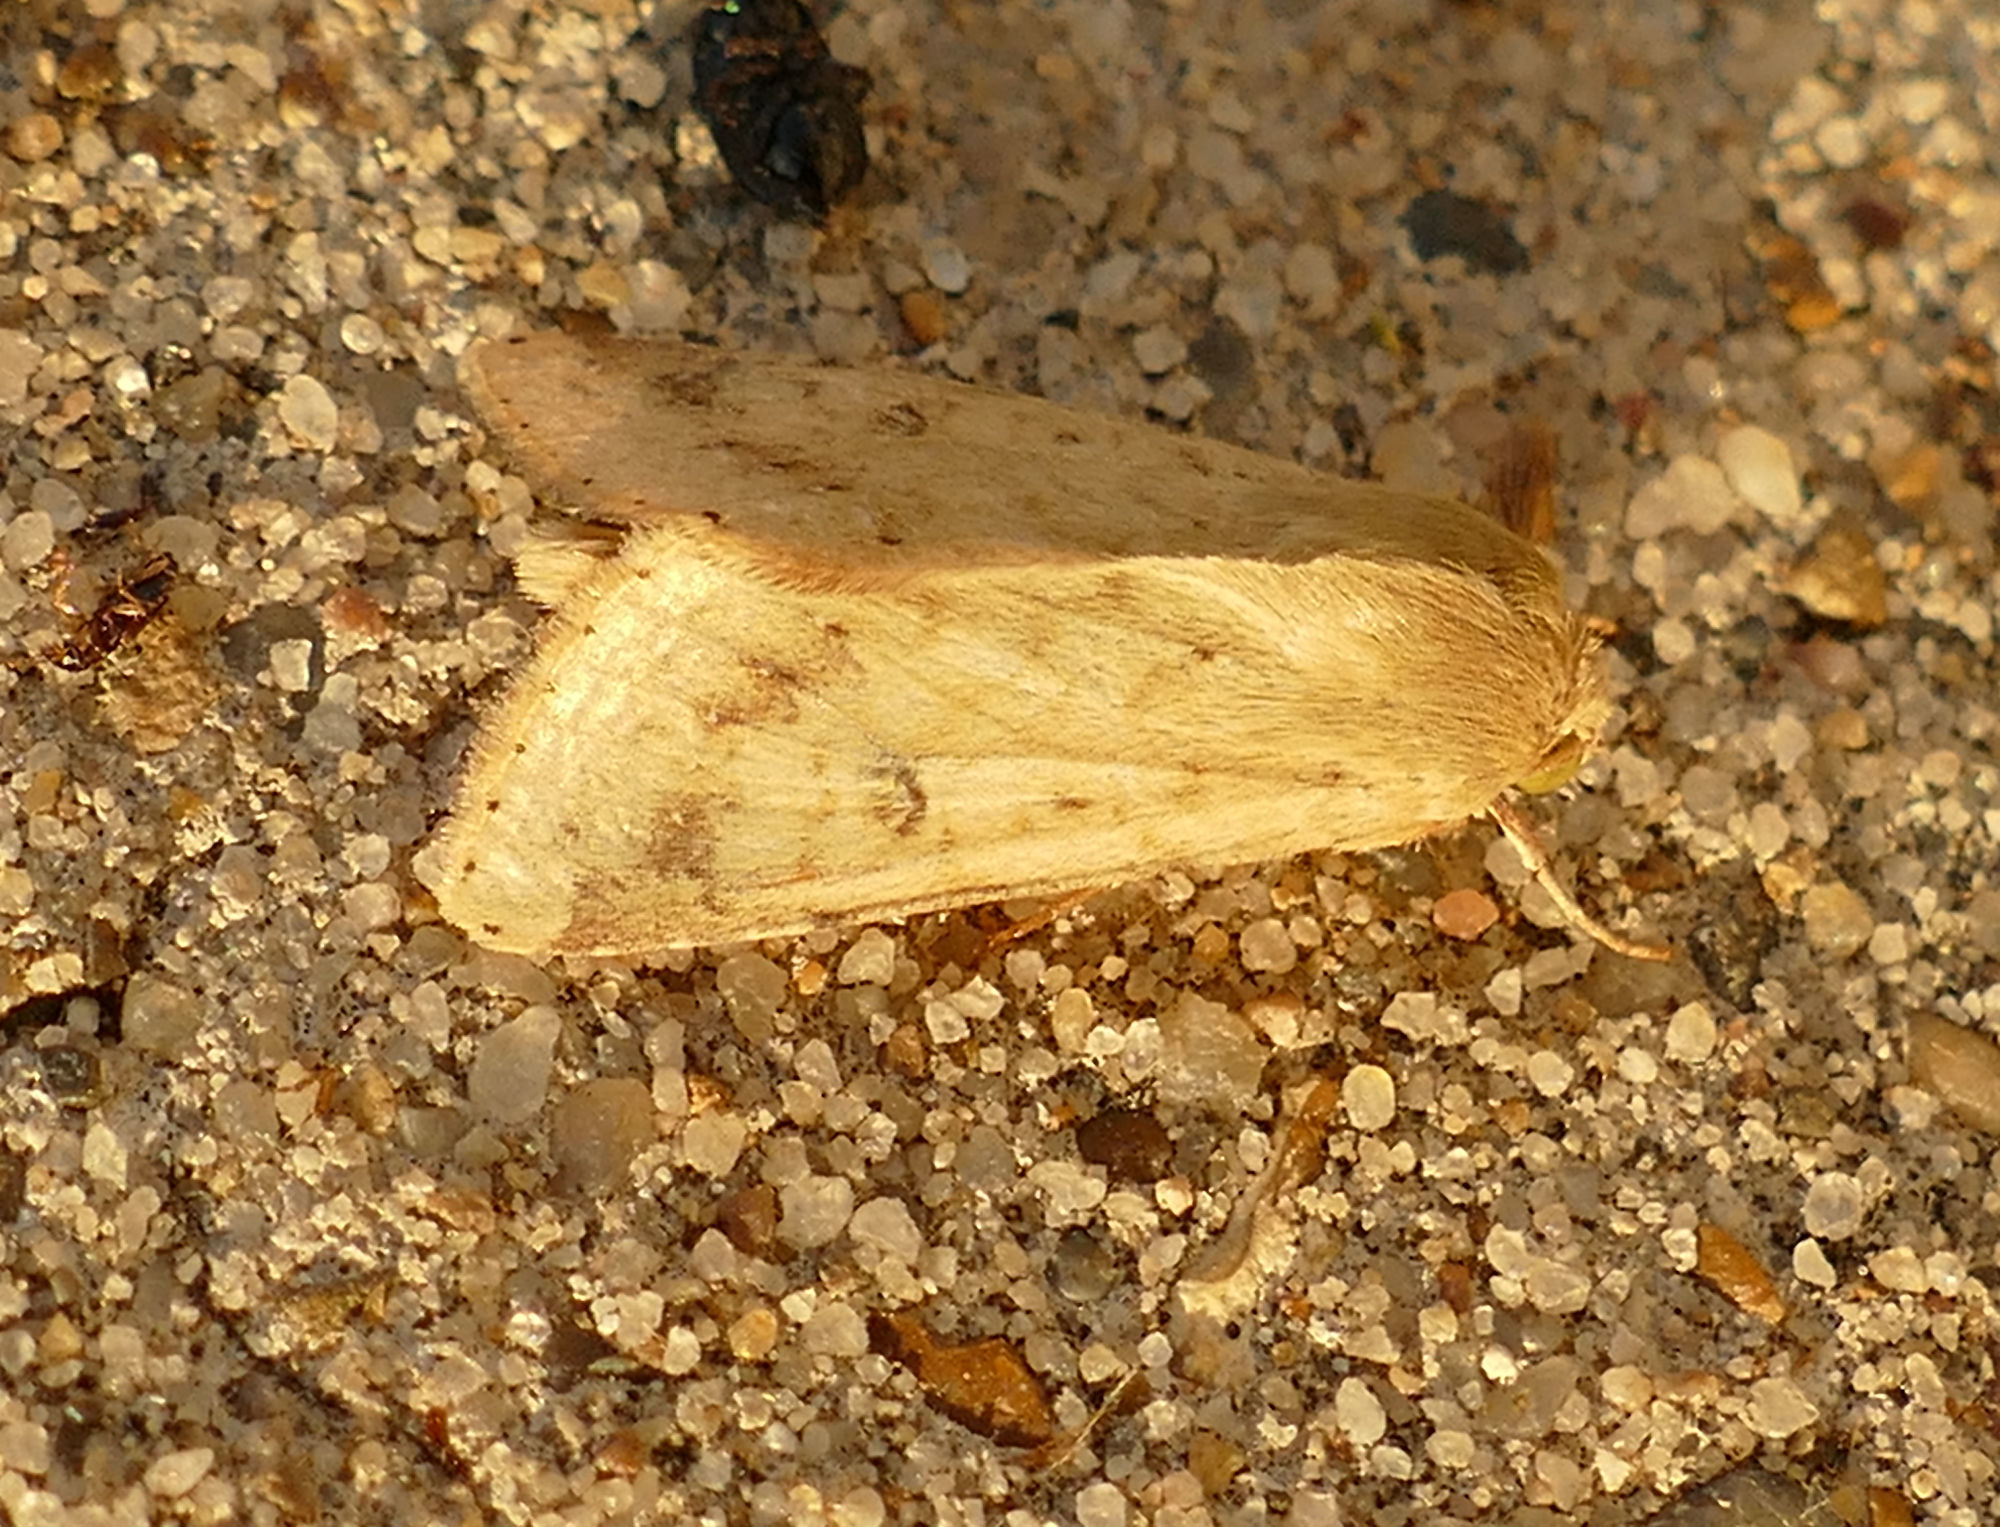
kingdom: Animalia
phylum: Arthropoda
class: Insecta
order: Lepidoptera
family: Noctuidae
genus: Helicoverpa
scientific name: Helicoverpa zea
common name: Bollworm
